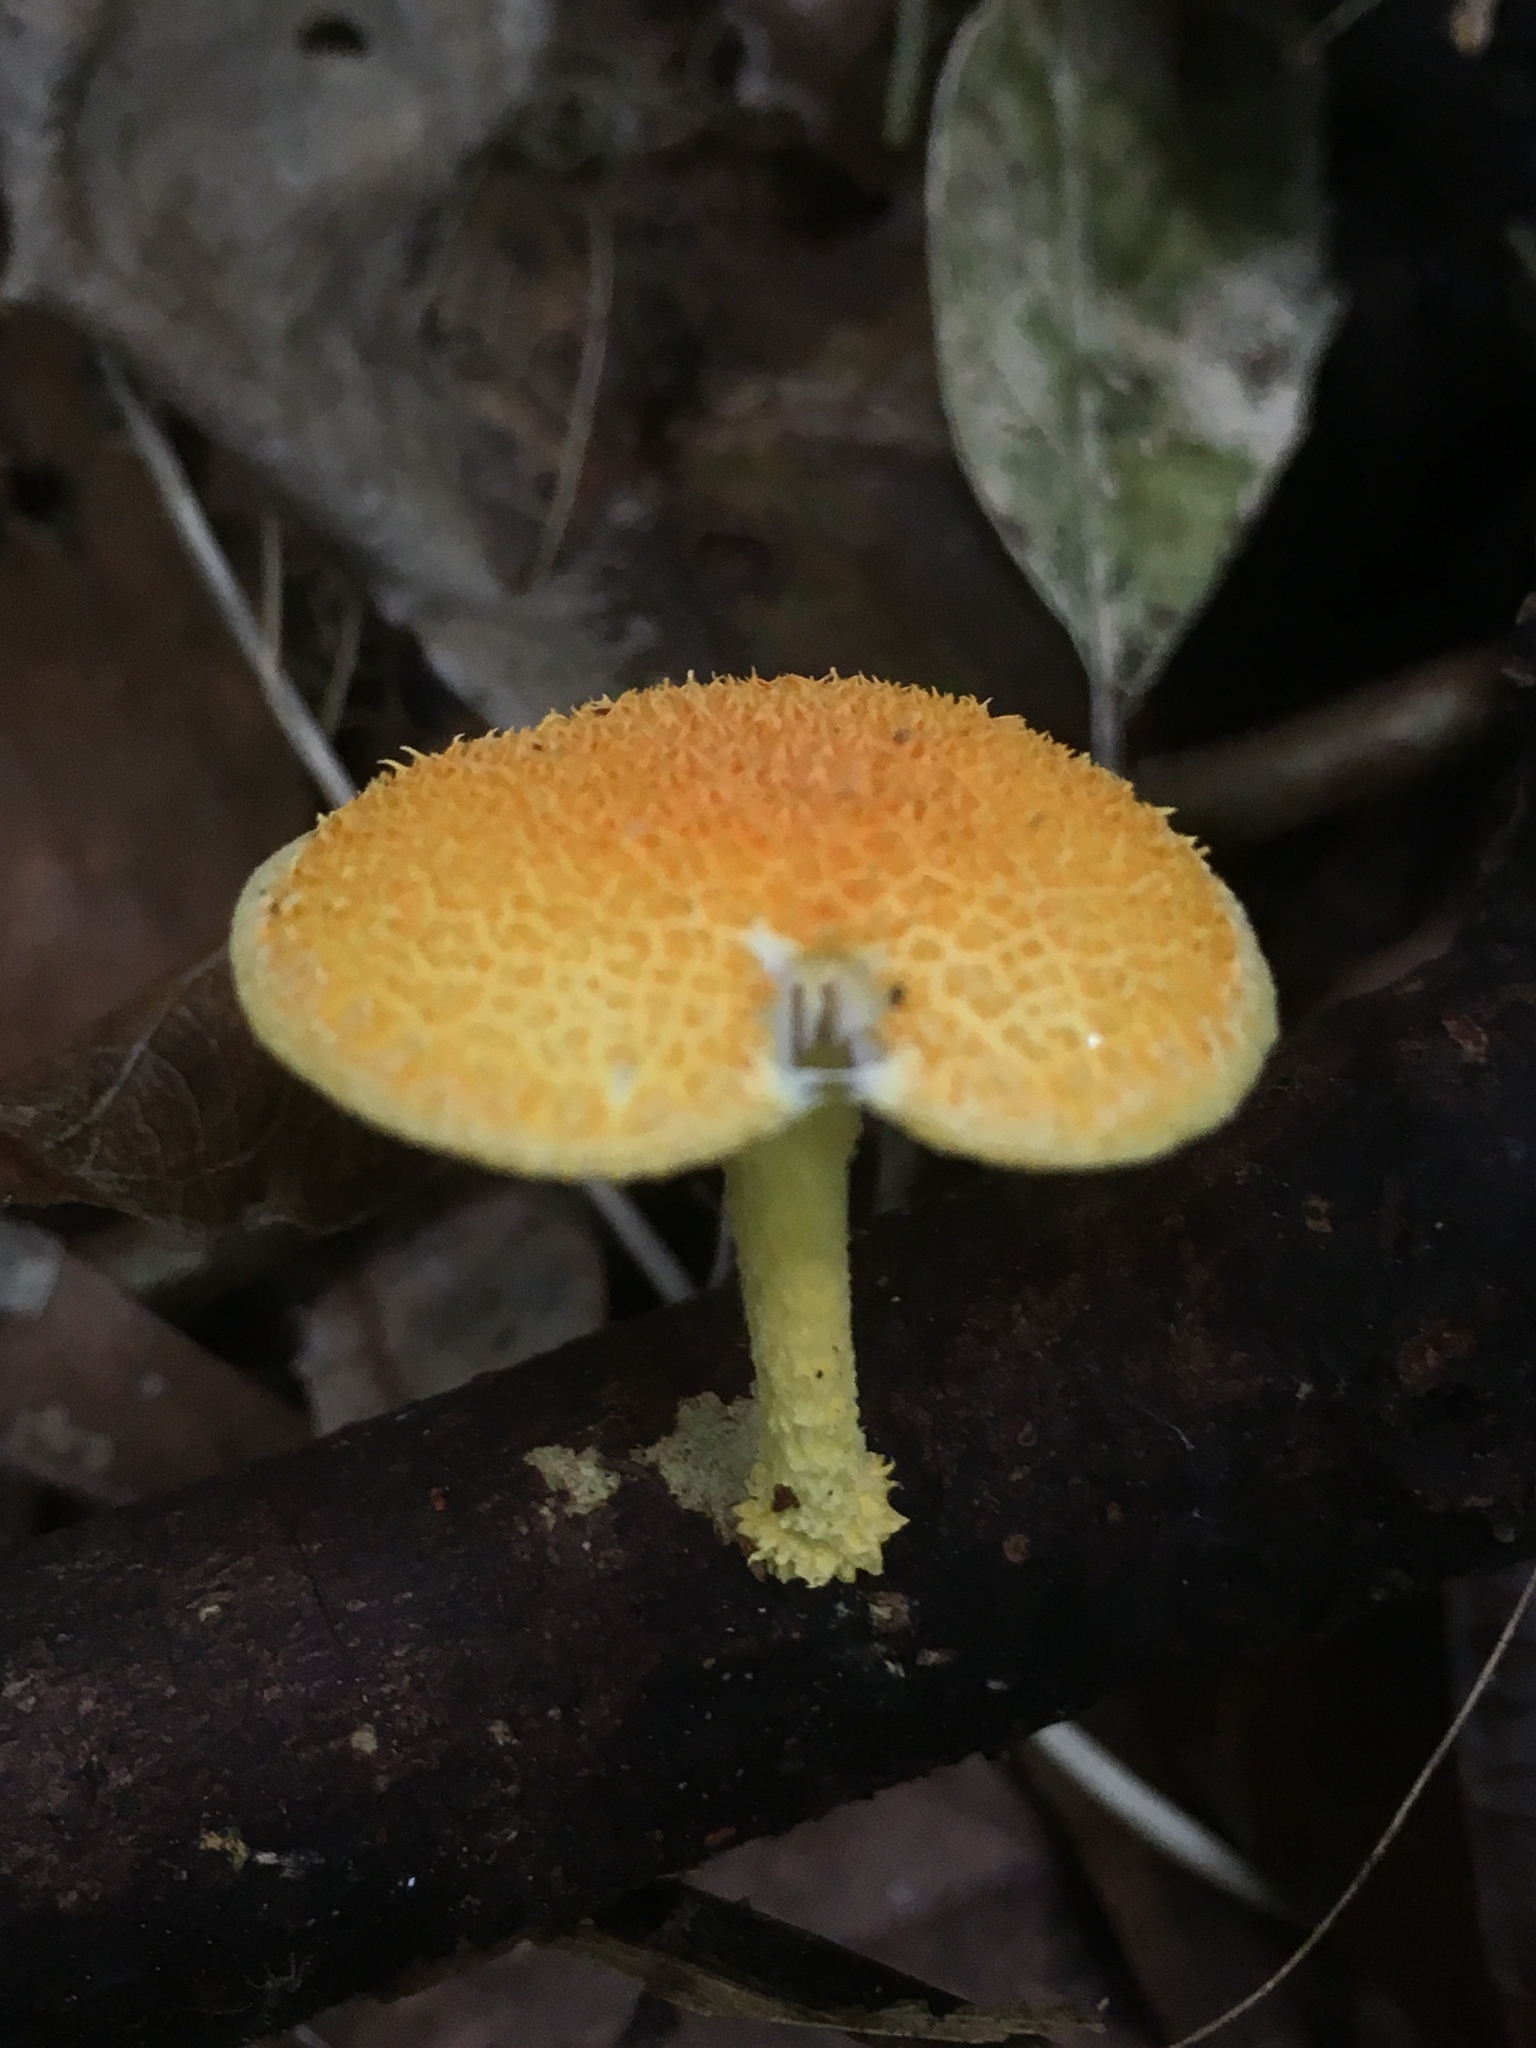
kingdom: Fungi
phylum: Basidiomycota
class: Agaricomycetes
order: Agaricales
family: Physalacriaceae
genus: Cyptotrama
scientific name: Cyptotrama asprata
